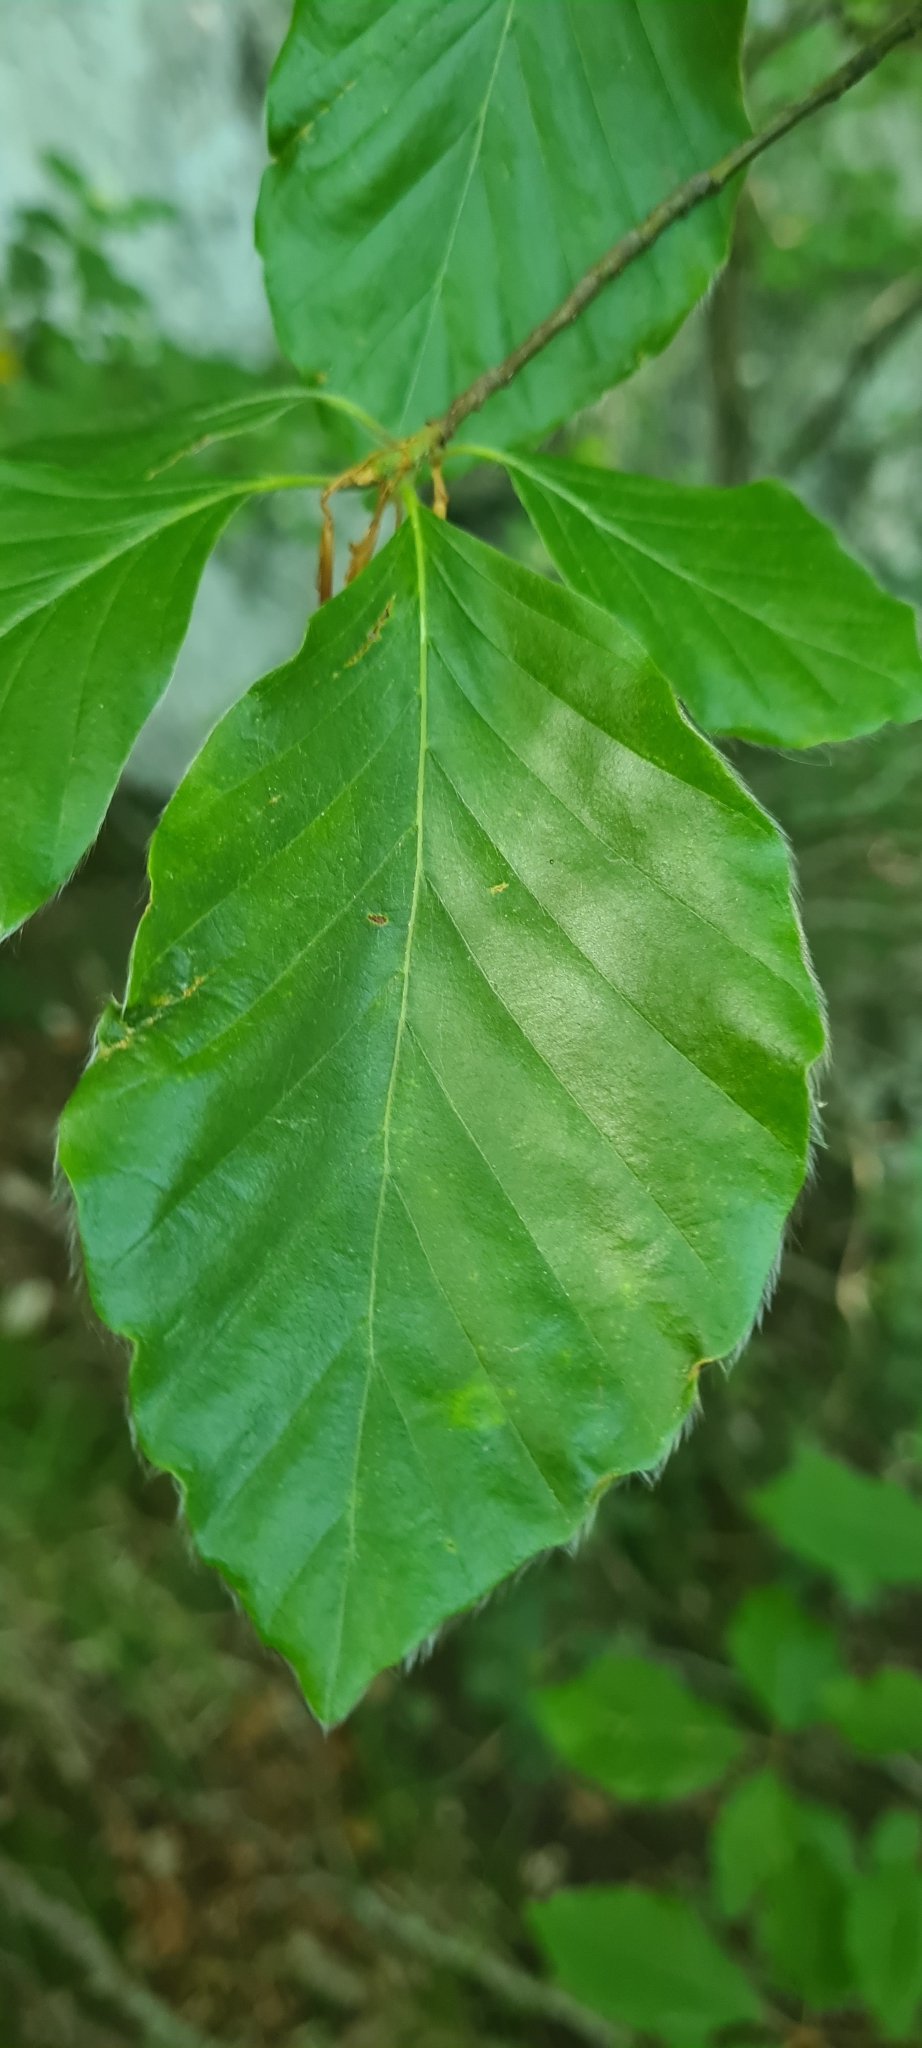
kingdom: Plantae
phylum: Tracheophyta
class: Magnoliopsida
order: Fagales
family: Fagaceae
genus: Fagus
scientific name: Fagus sylvatica
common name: Beech
